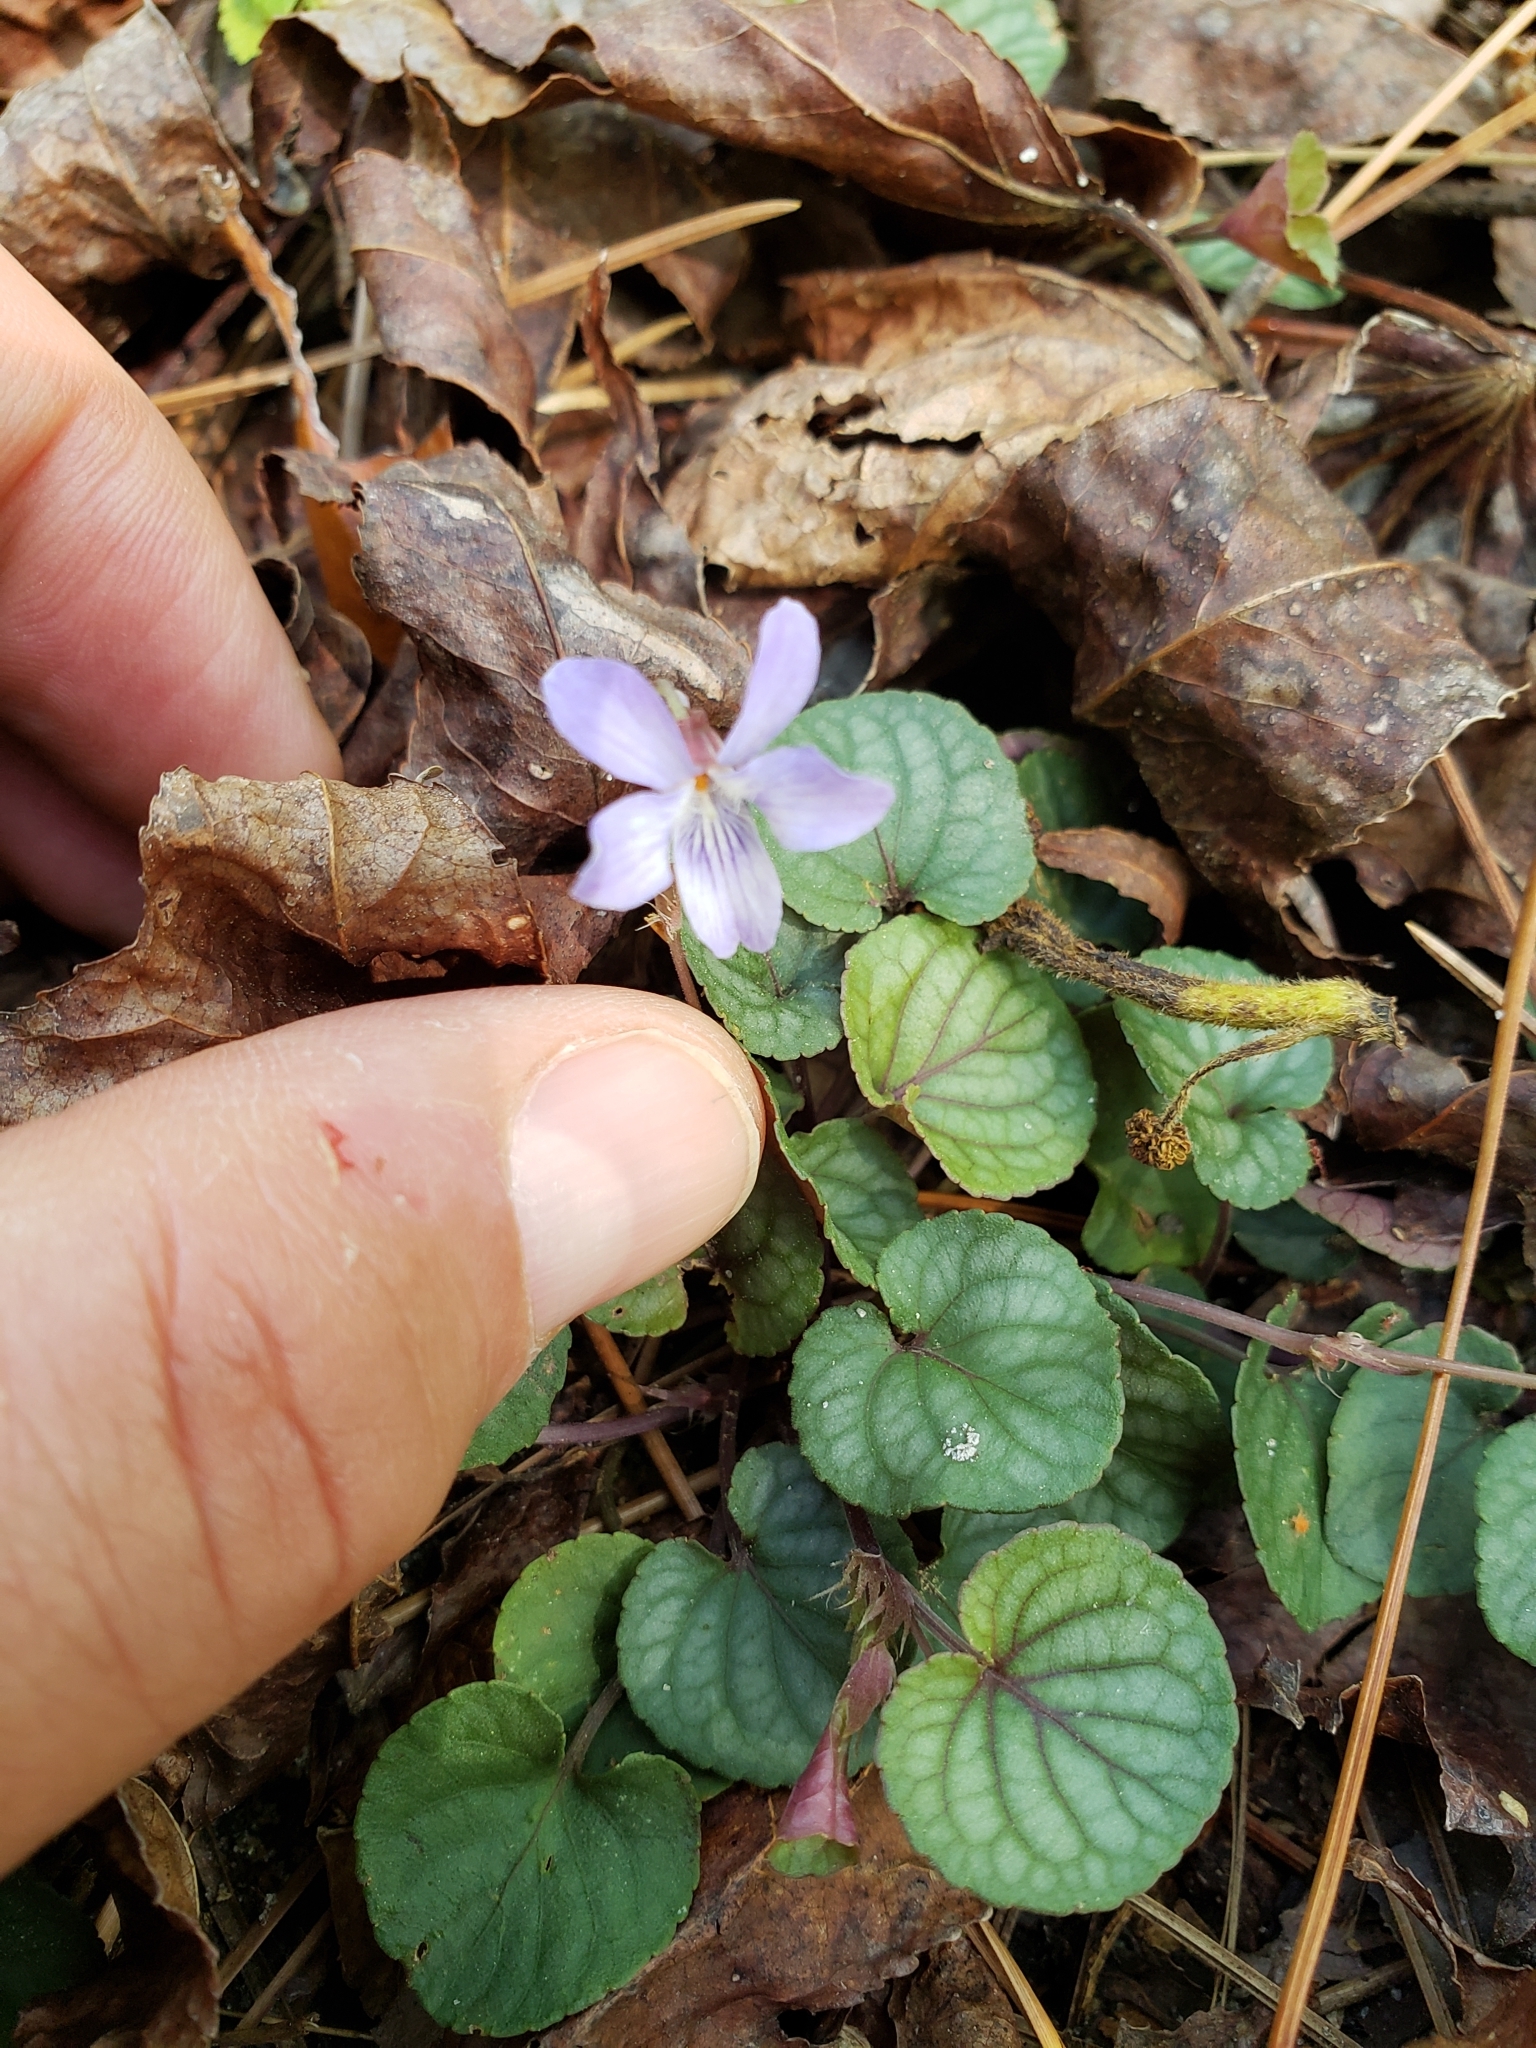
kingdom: Plantae
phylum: Tracheophyta
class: Magnoliopsida
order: Malpighiales
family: Violaceae
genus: Viola
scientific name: Viola walteri
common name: Prostrate southern violet
